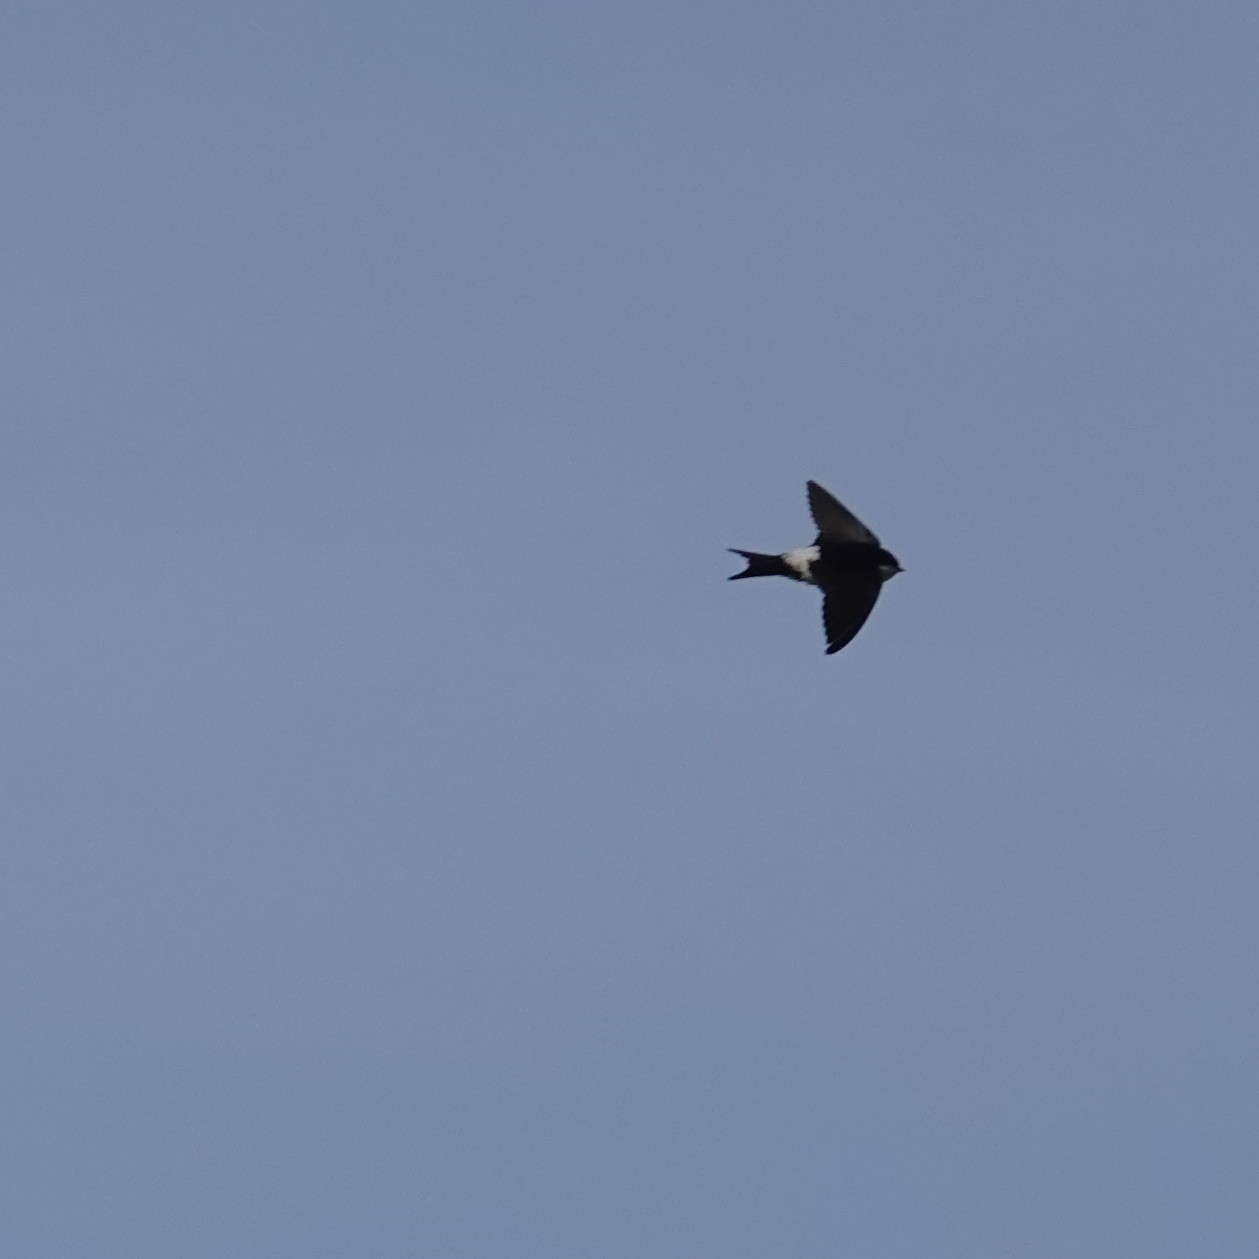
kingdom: Animalia
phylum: Chordata
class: Aves
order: Passeriformes
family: Hirundinidae
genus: Delichon
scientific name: Delichon urbicum
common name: Common house martin
